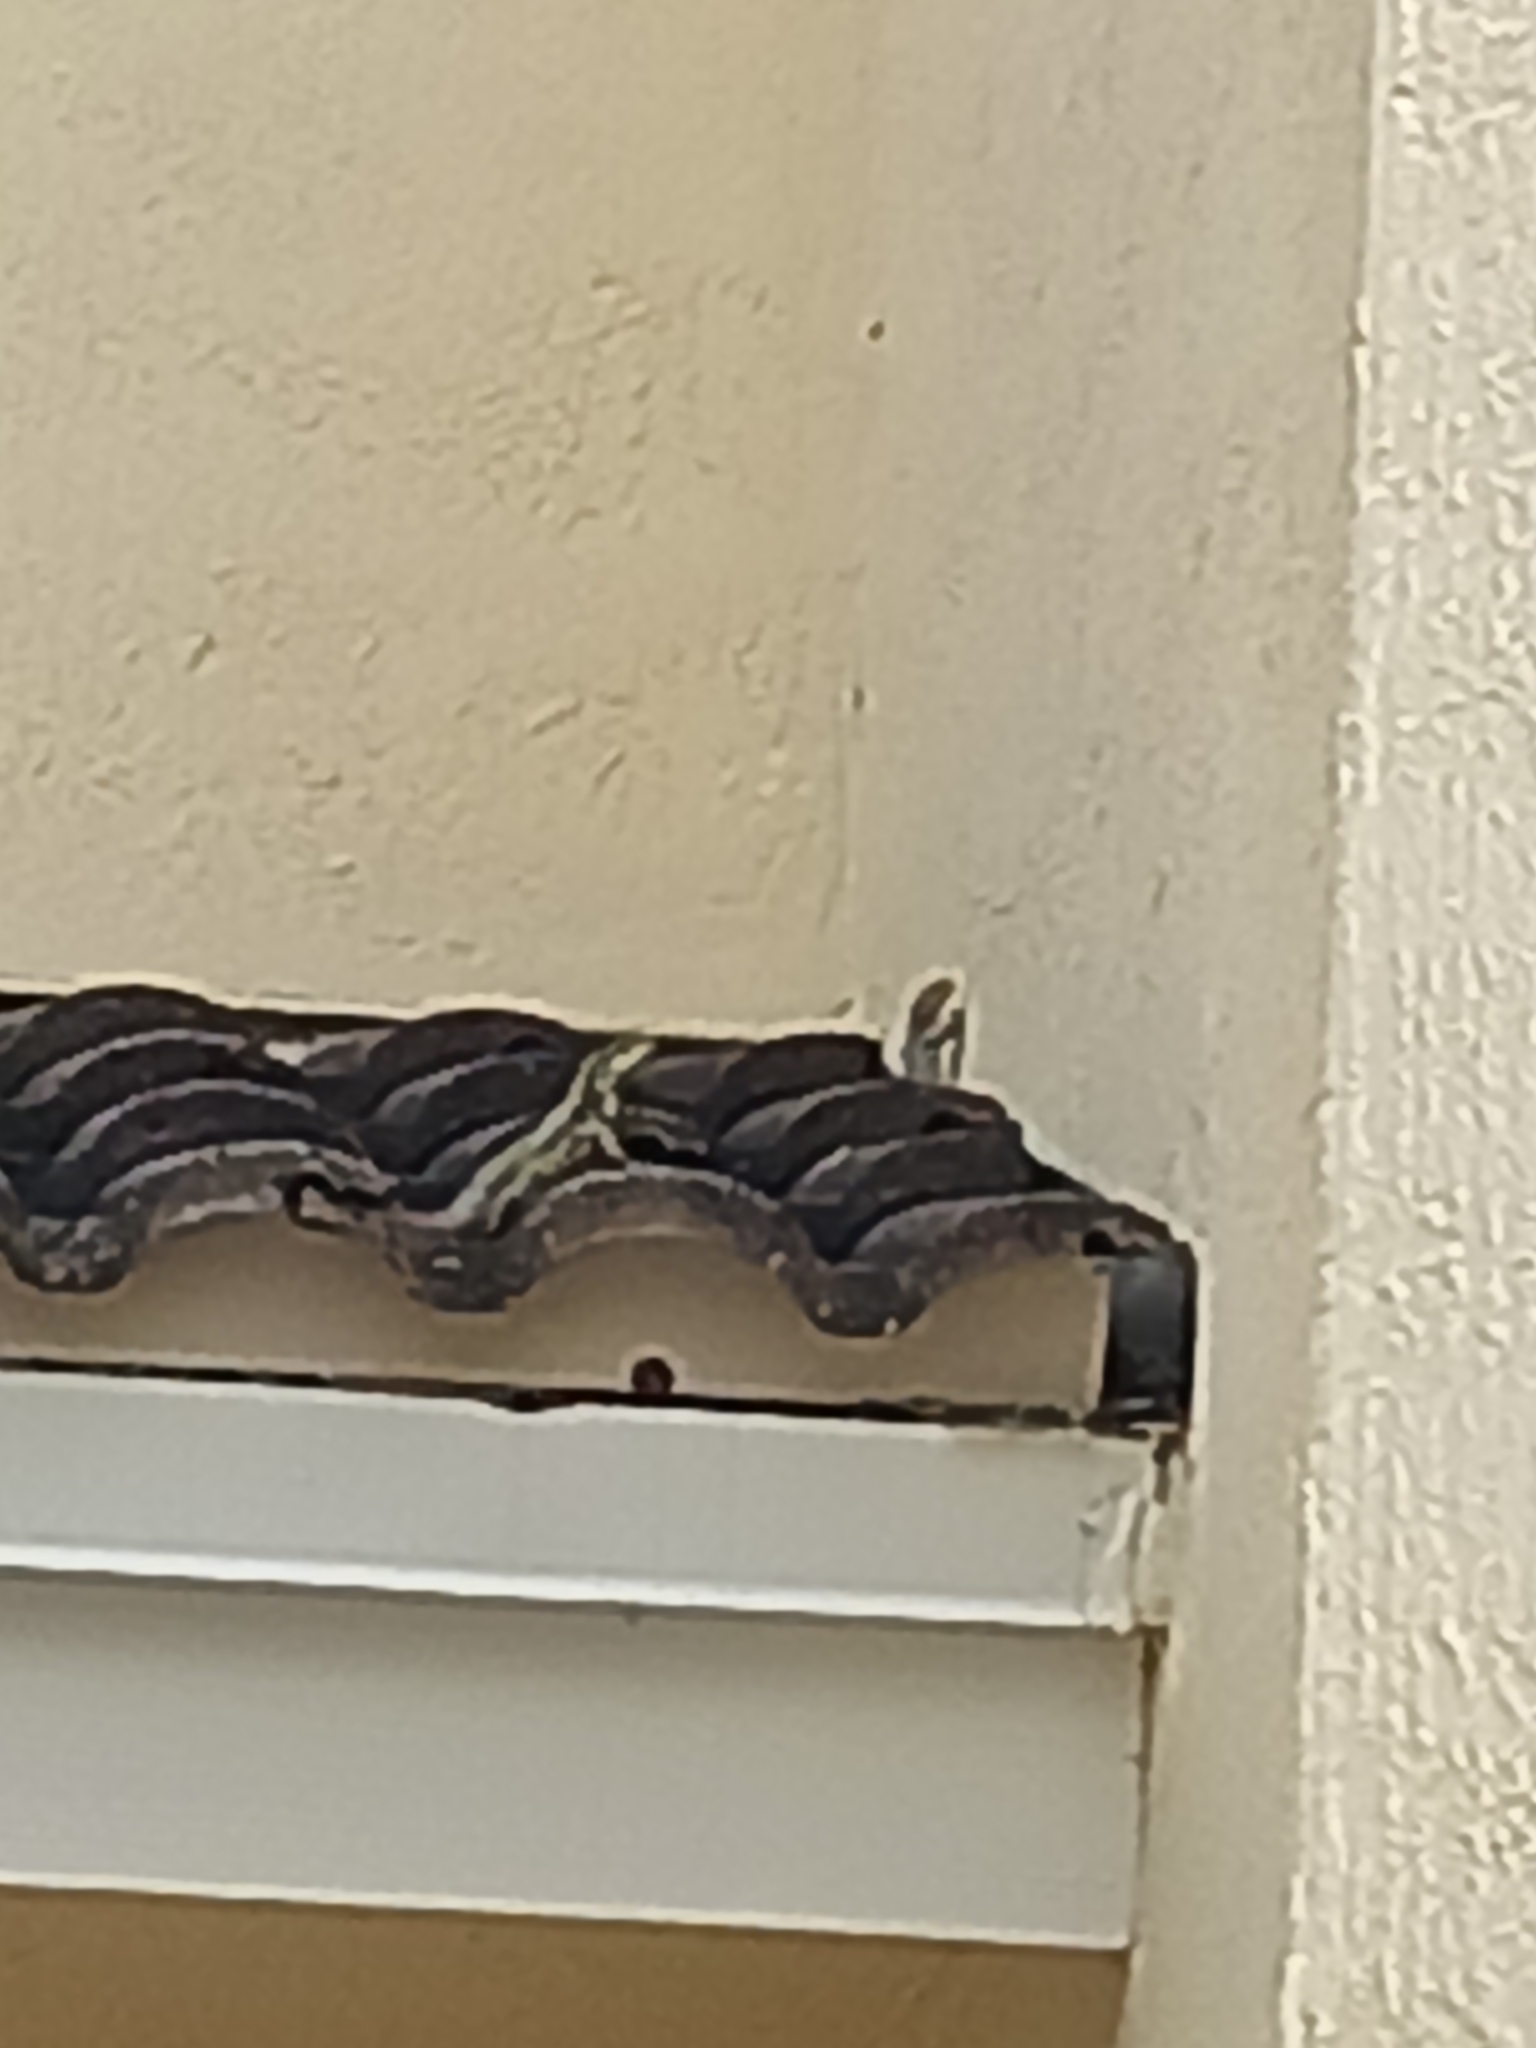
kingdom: Animalia
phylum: Chordata
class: Squamata
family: Leiocephalidae
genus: Leiocephalus
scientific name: Leiocephalus carinatus
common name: Northern curly-tailed lizard
